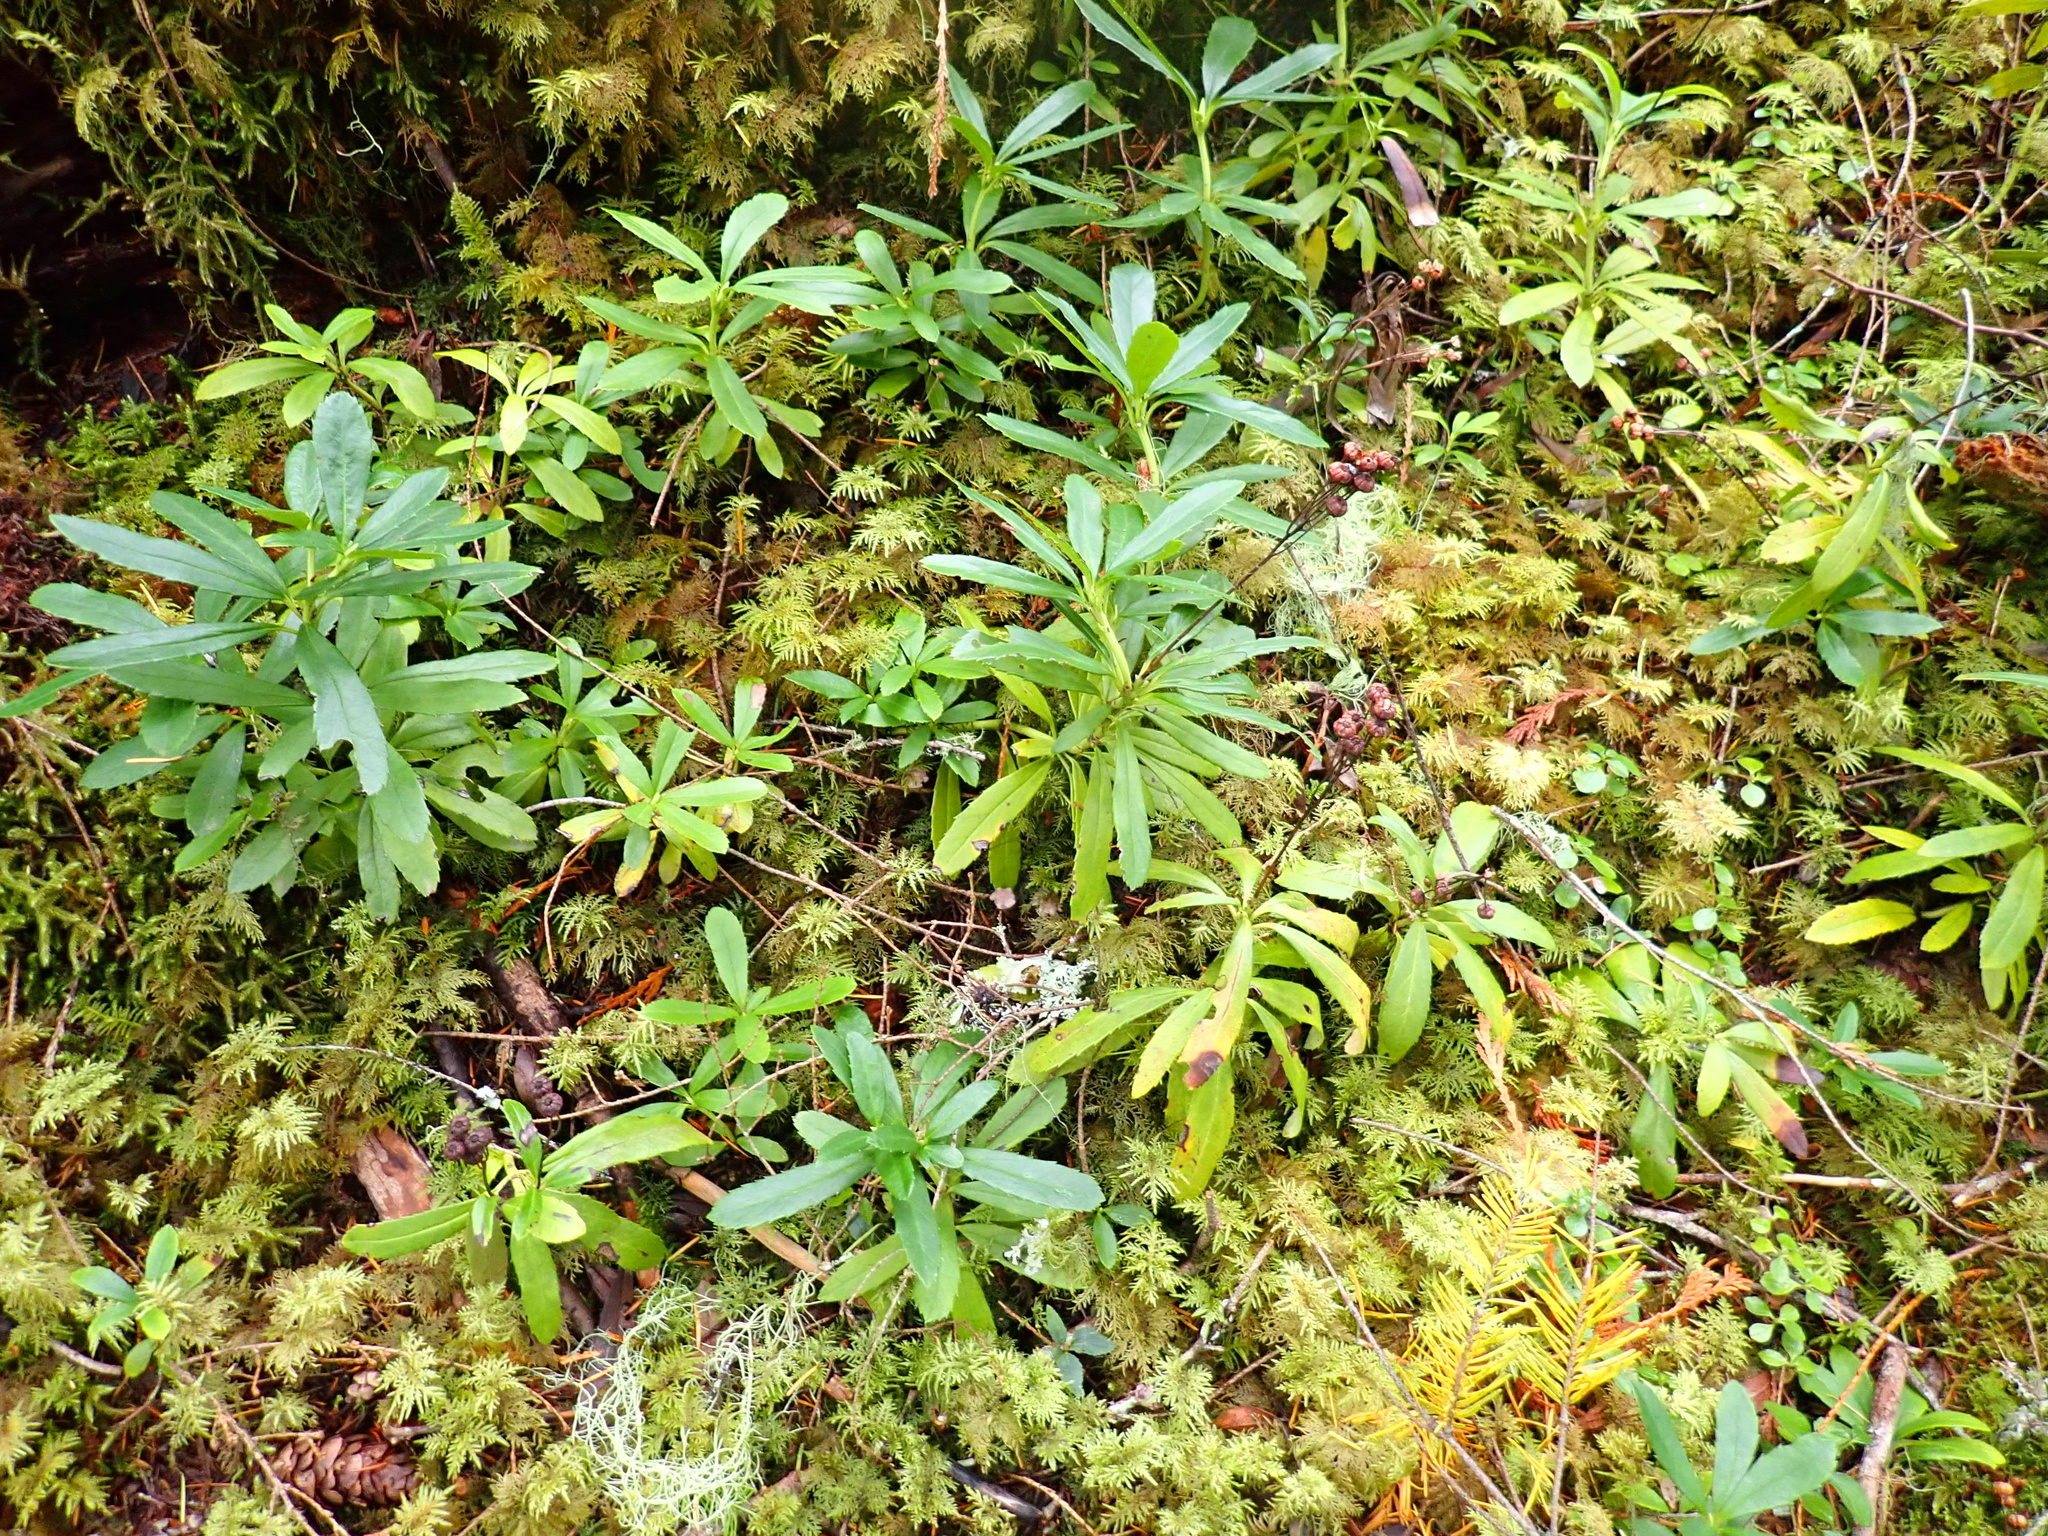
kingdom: Plantae
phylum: Tracheophyta
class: Magnoliopsida
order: Ericales
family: Ericaceae
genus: Chimaphila
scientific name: Chimaphila umbellata
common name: Pipsissewa
